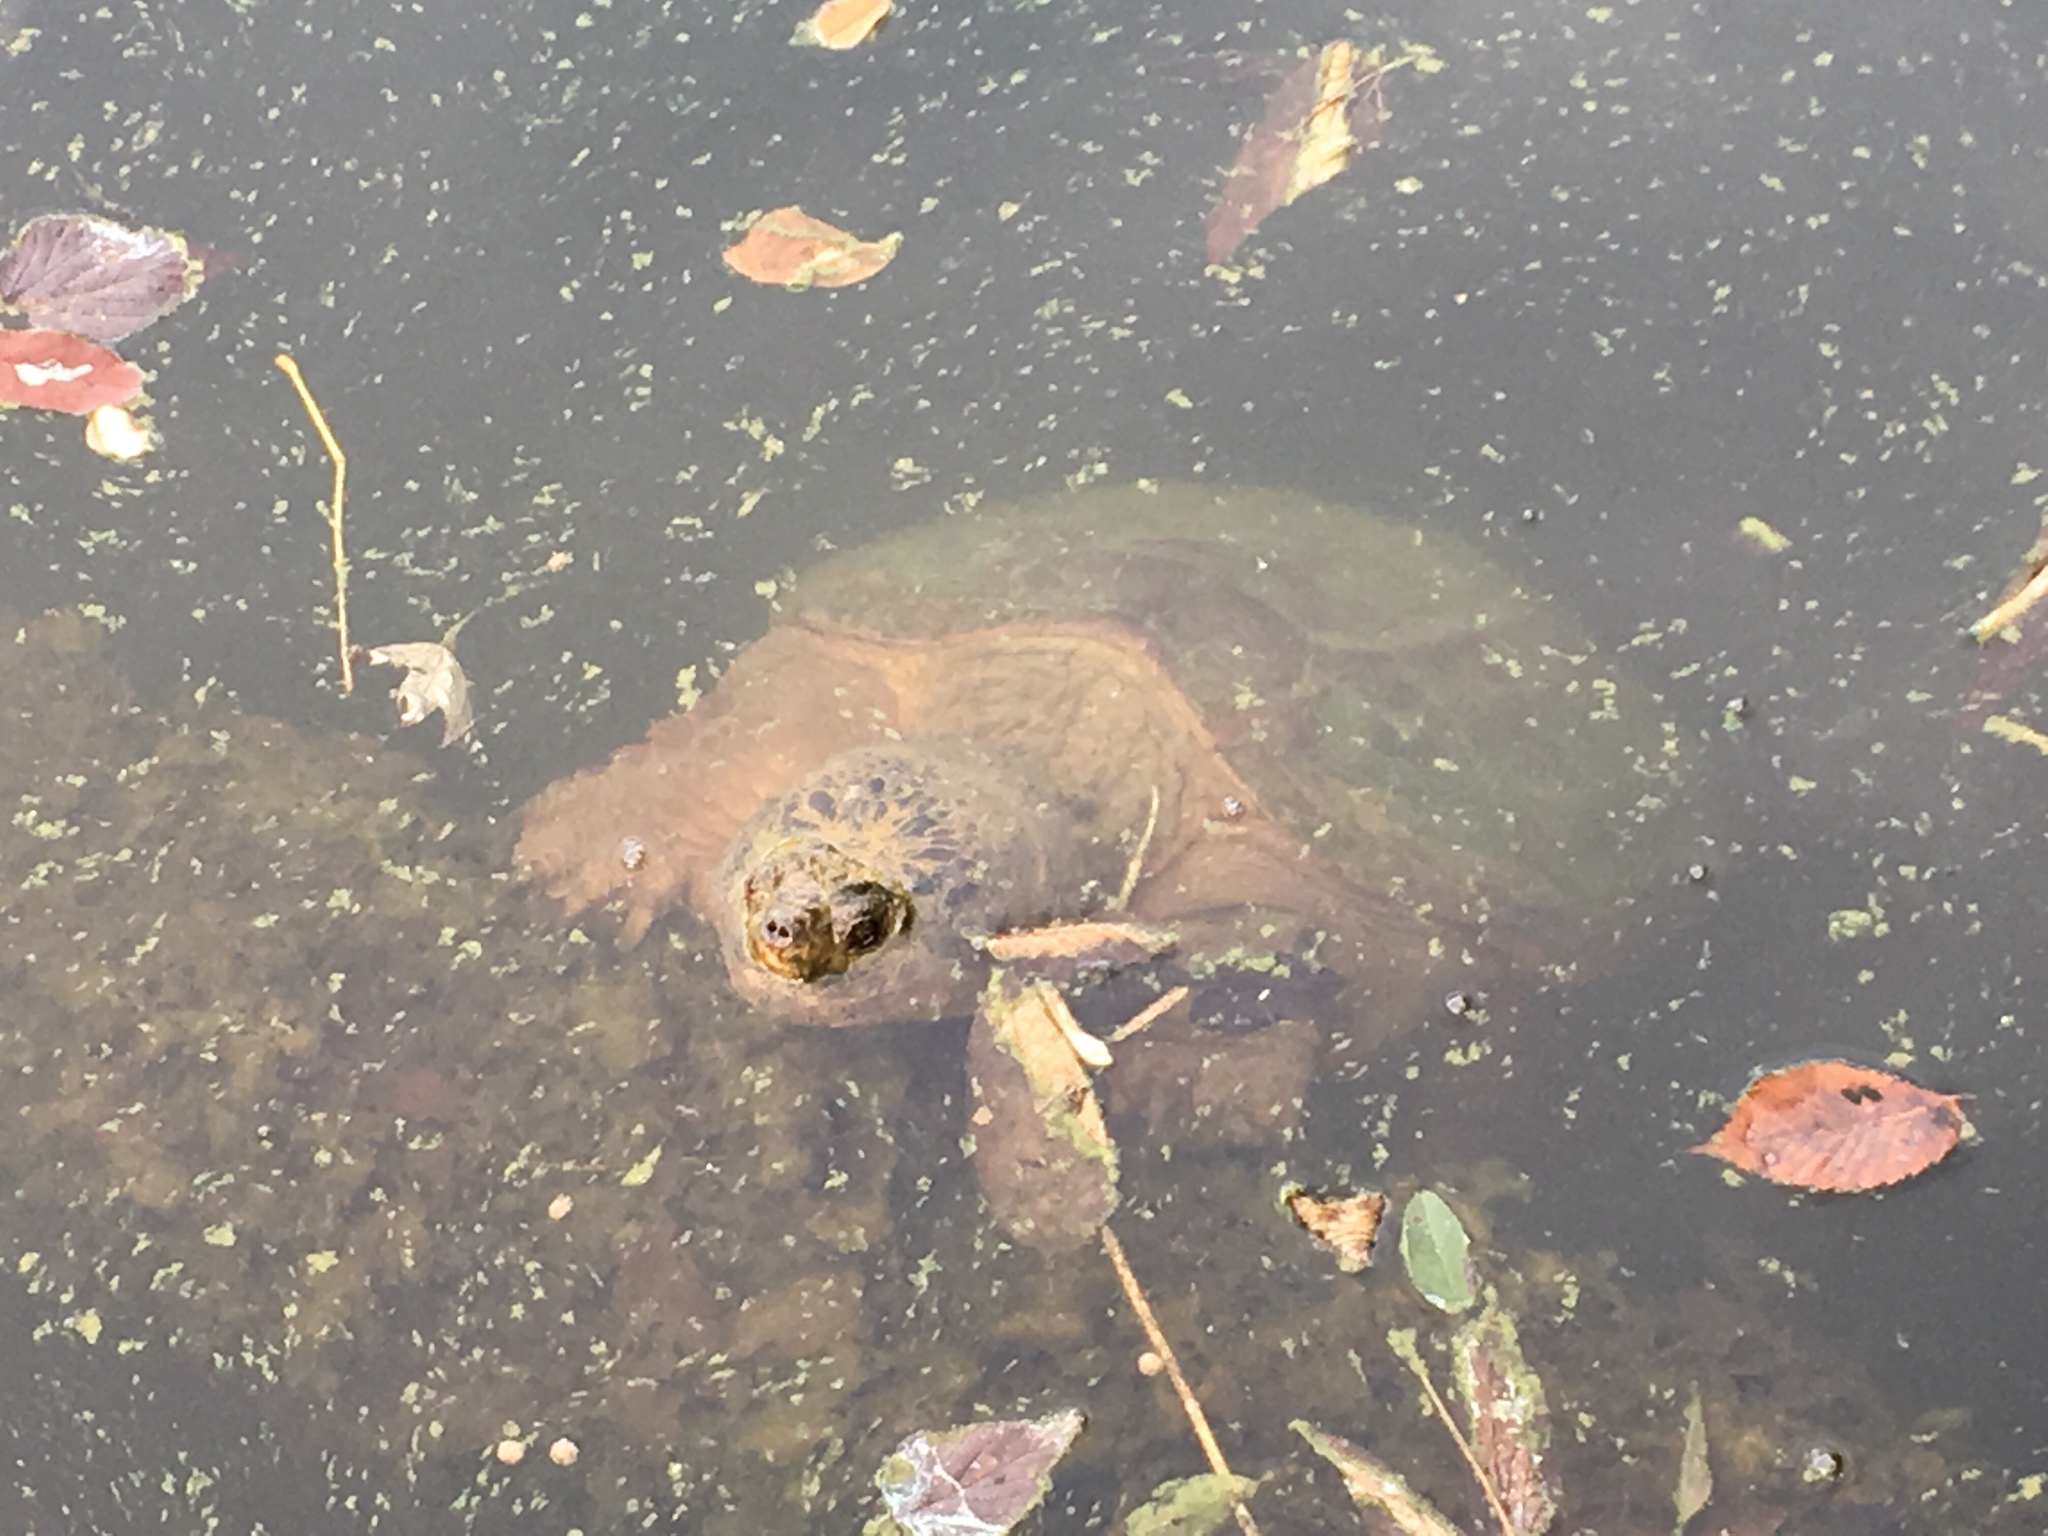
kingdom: Animalia
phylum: Chordata
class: Testudines
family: Chelydridae
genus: Chelydra
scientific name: Chelydra serpentina
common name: Common snapping turtle
